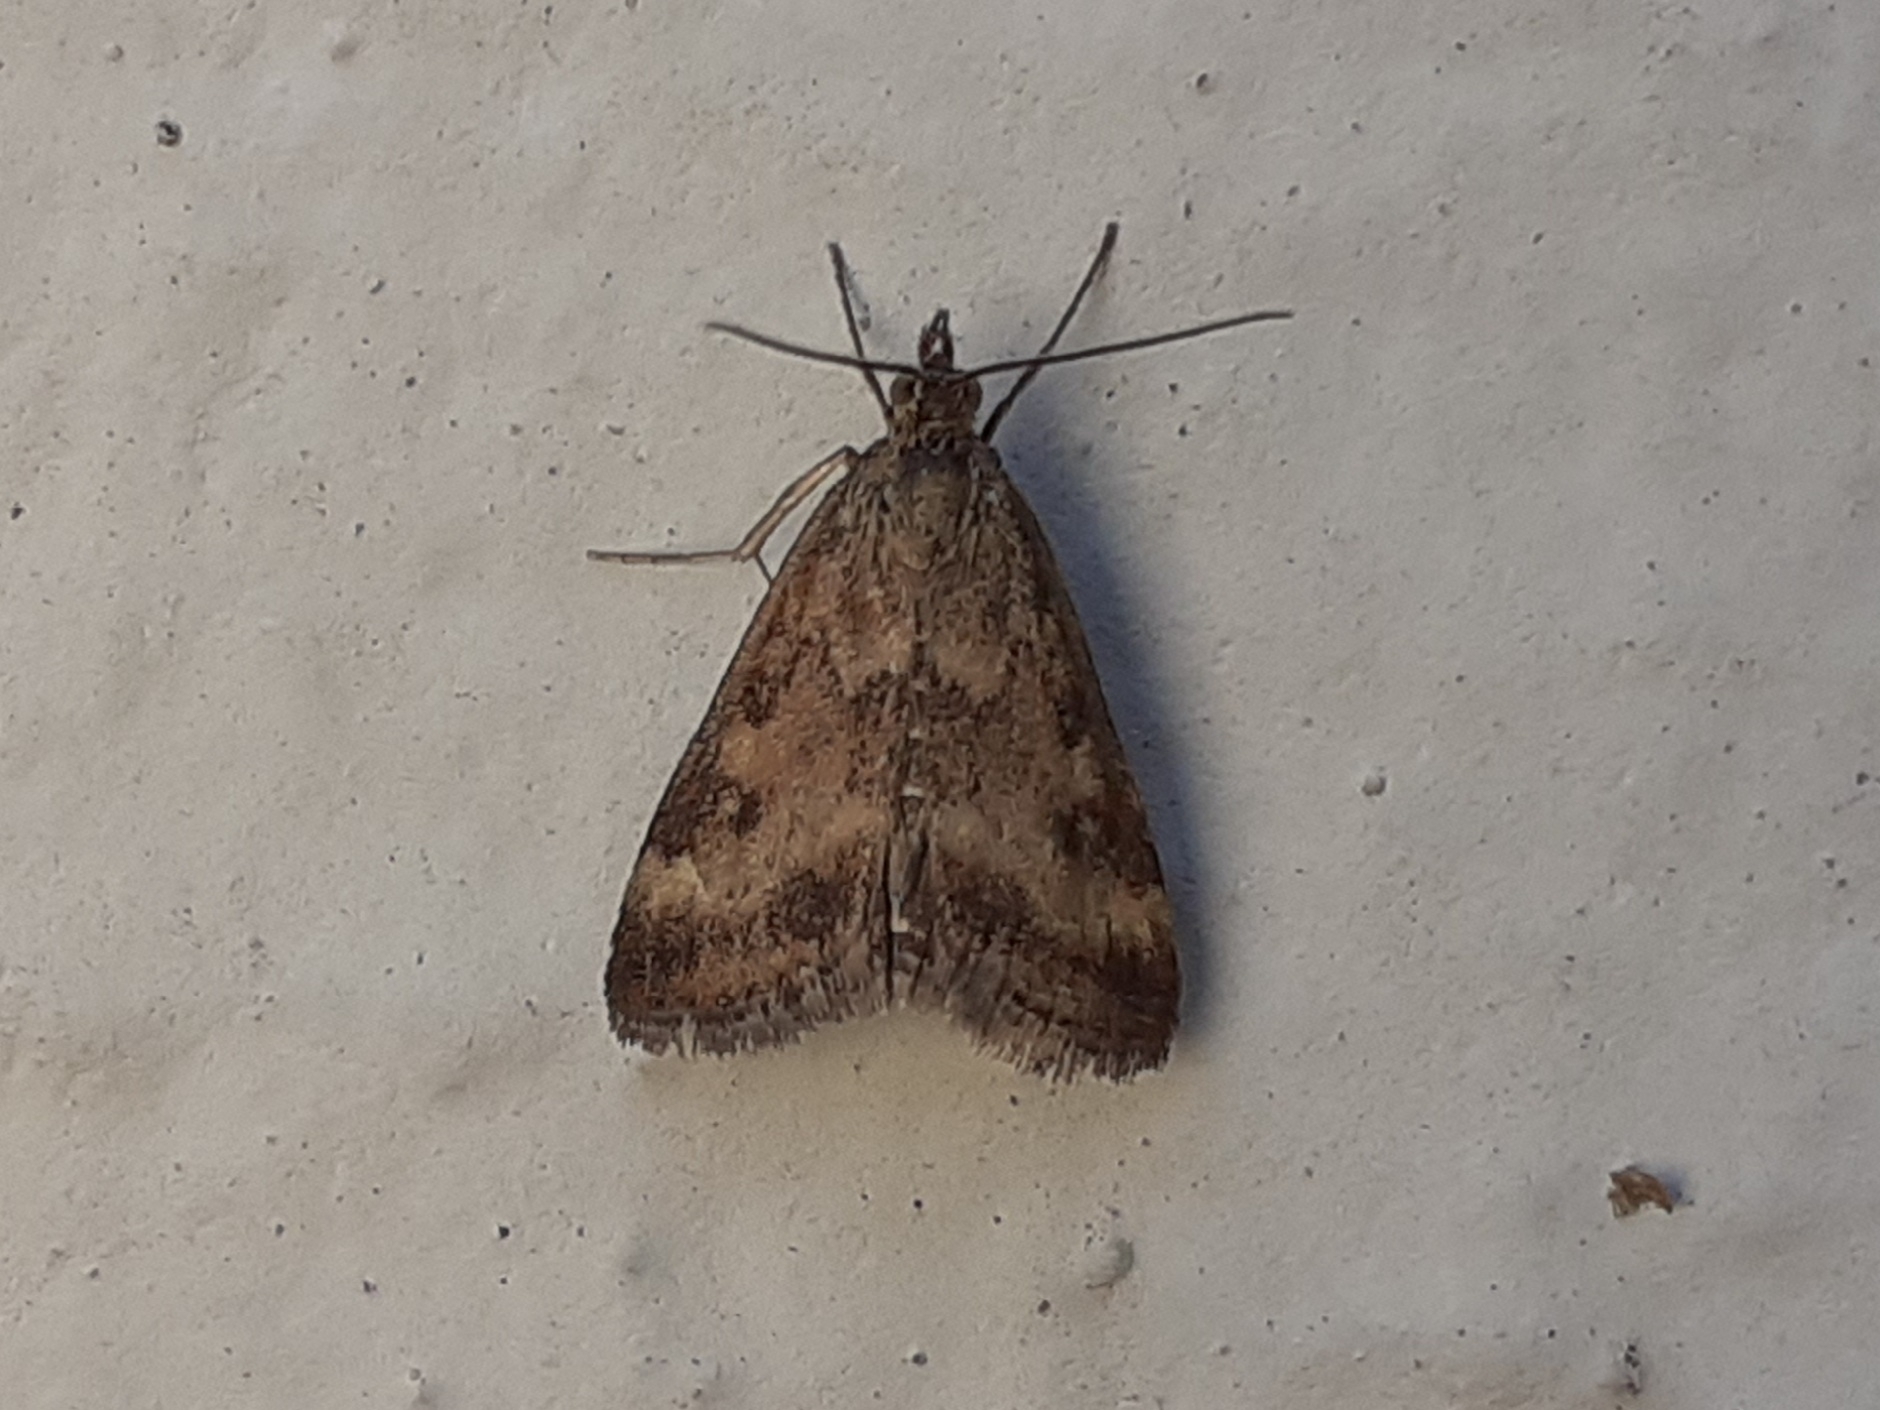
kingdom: Animalia
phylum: Arthropoda
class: Insecta
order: Lepidoptera
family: Crambidae
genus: Pyrausta
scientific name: Pyrausta despicata
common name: Straw-barred pearl
